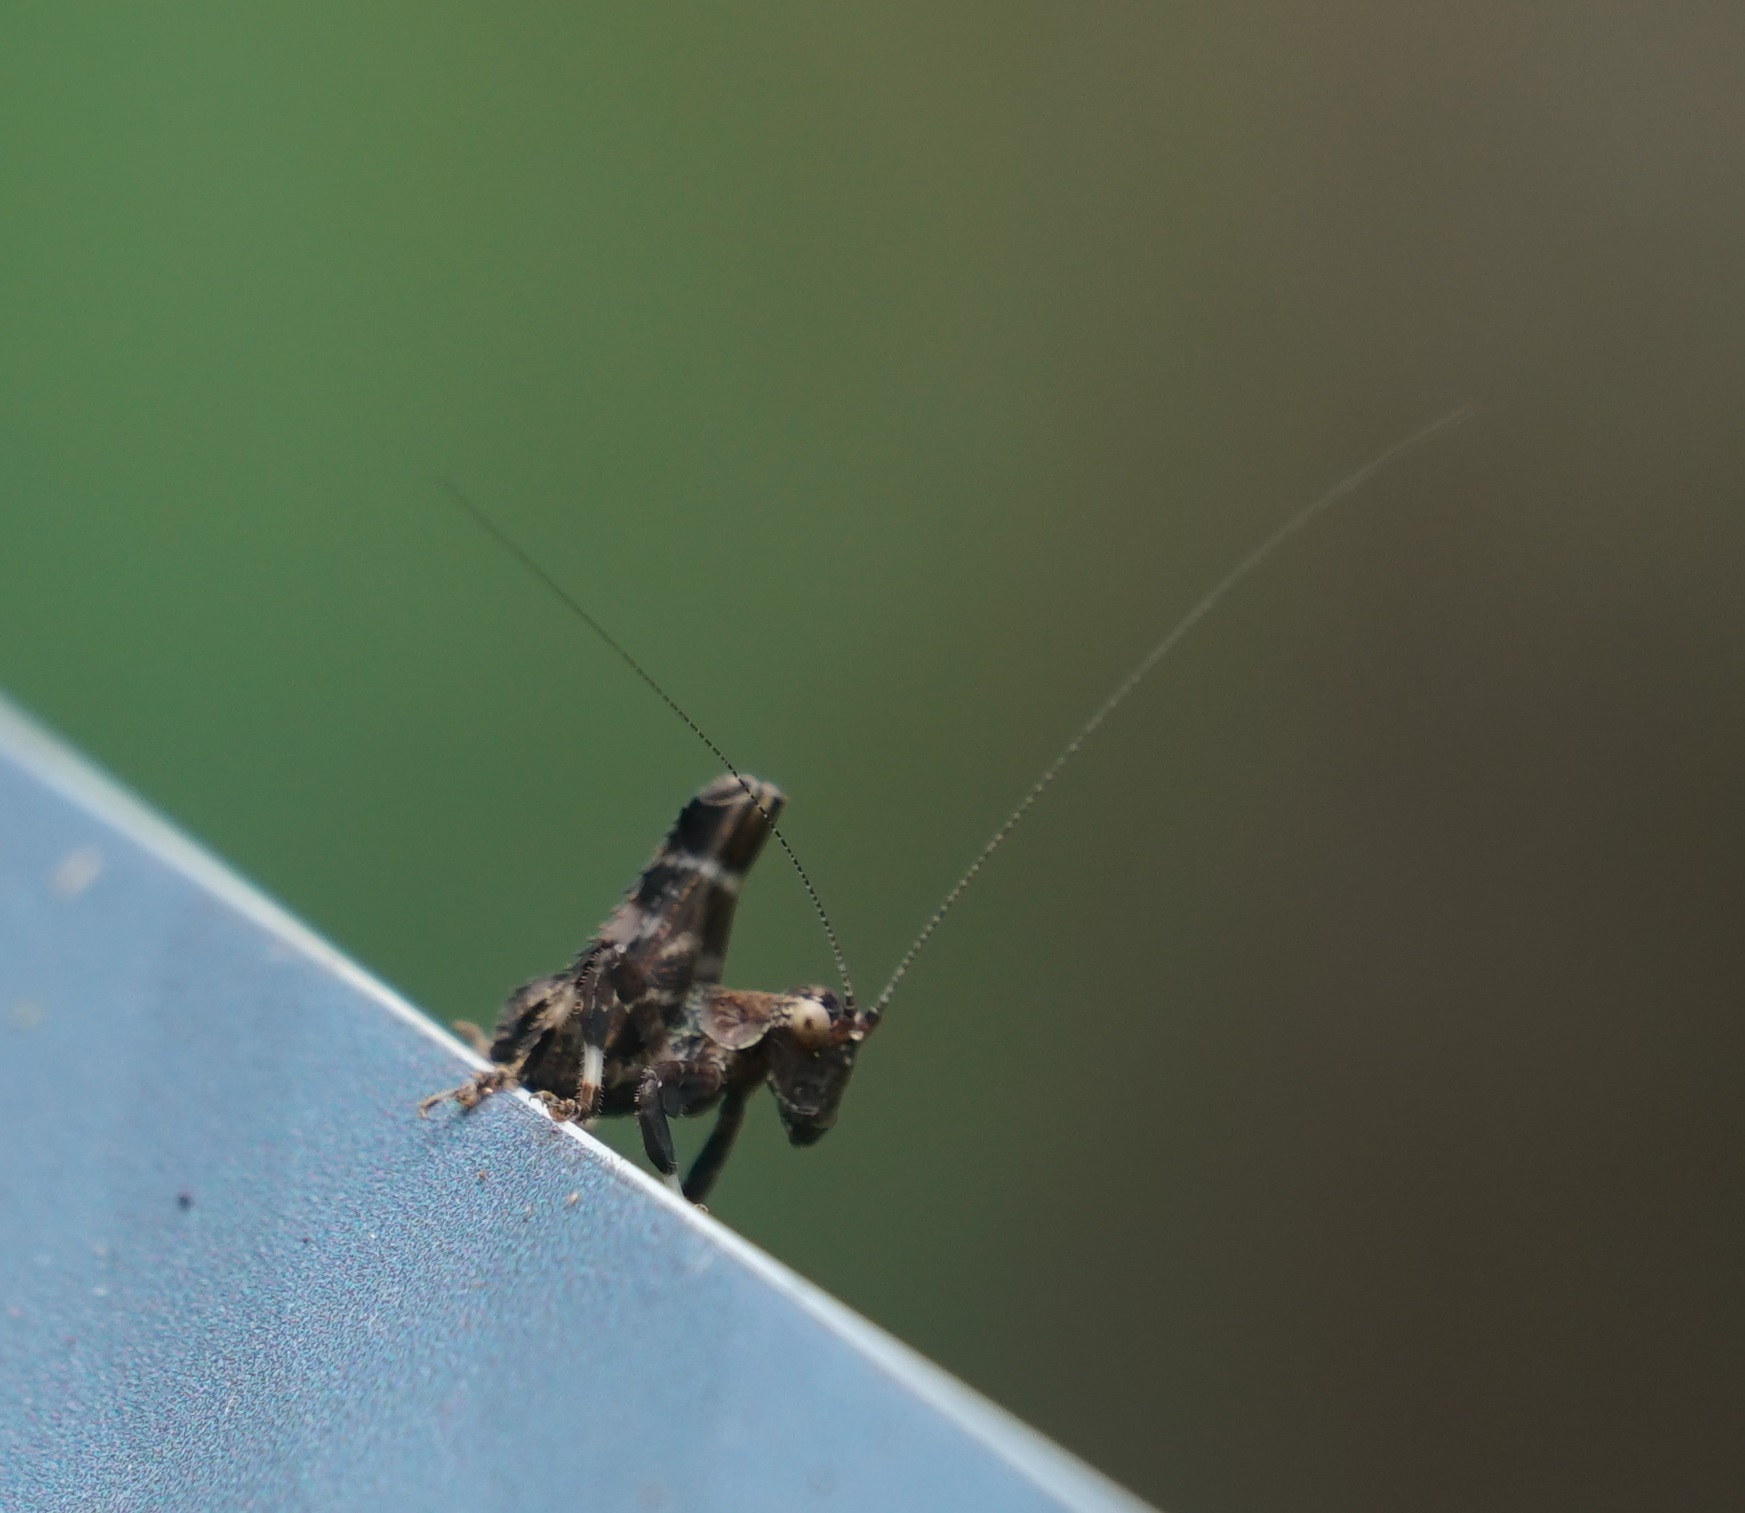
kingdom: Animalia
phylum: Arthropoda
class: Insecta
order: Orthoptera
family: Tettigoniidae
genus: Ephippitytha
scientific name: Ephippitytha kuranda
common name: Kuranda spotted katydid
